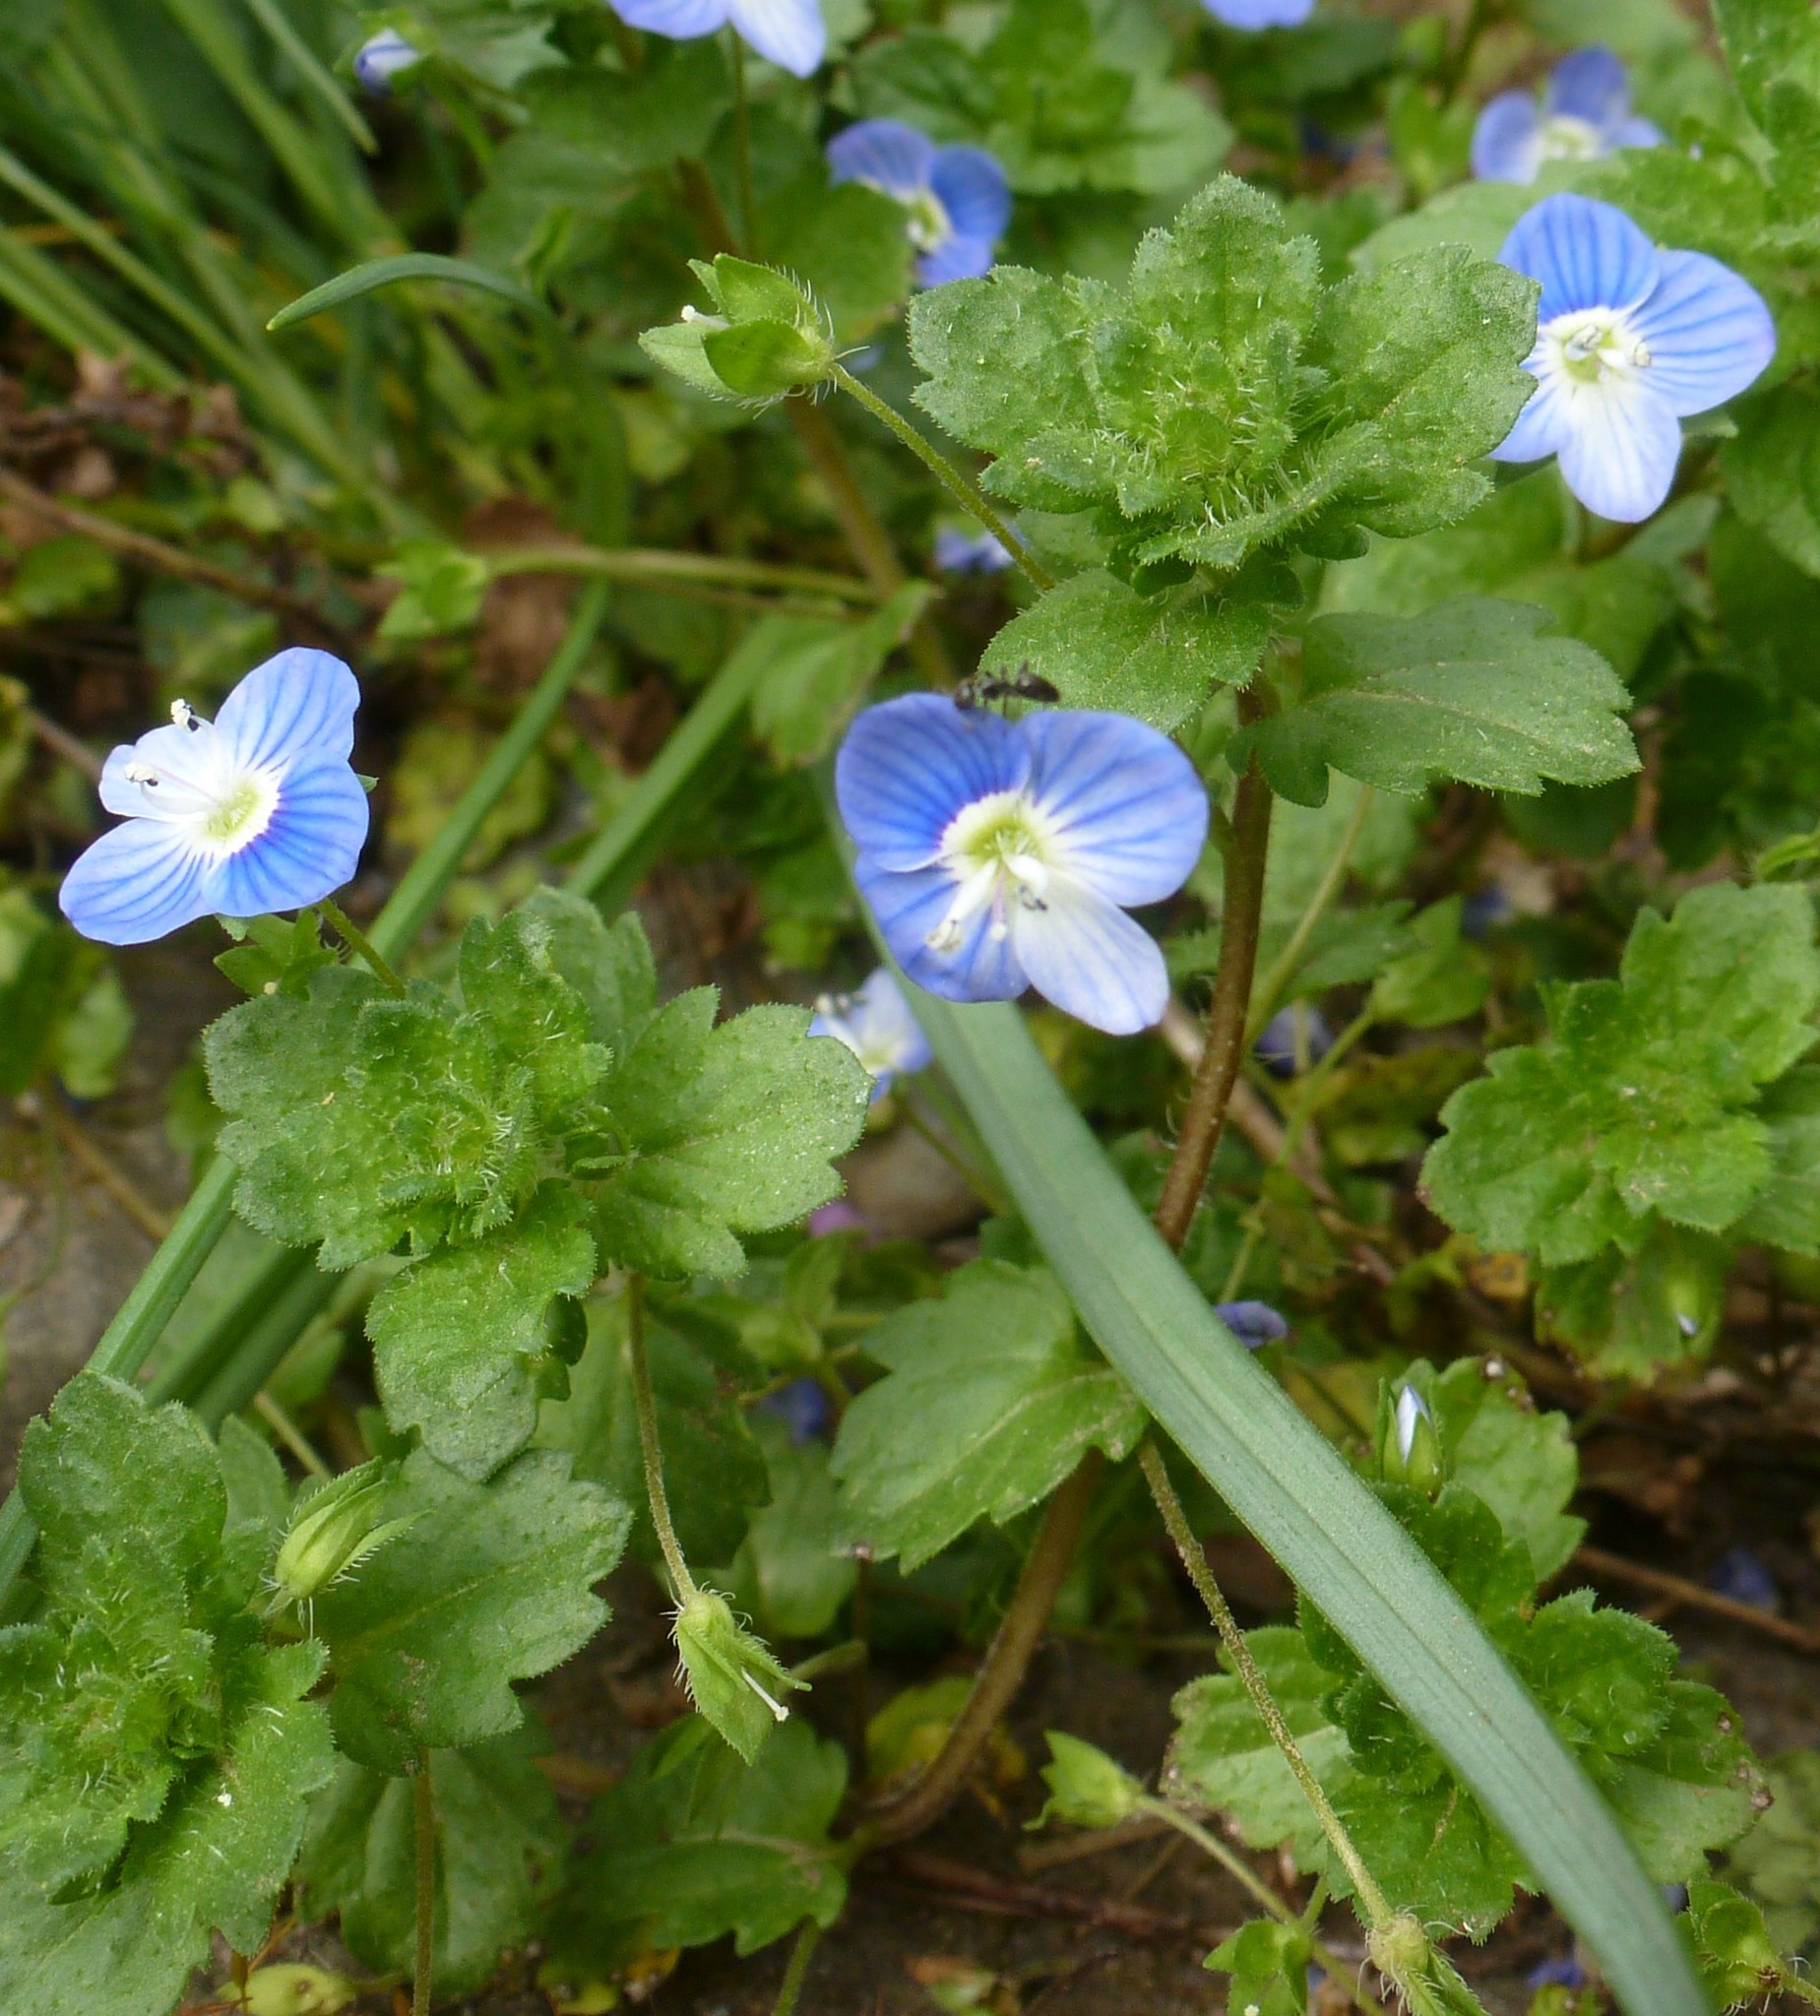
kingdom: Plantae
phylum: Tracheophyta
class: Magnoliopsida
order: Lamiales
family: Plantaginaceae
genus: Veronica
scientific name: Veronica persica
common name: Common field-speedwell
